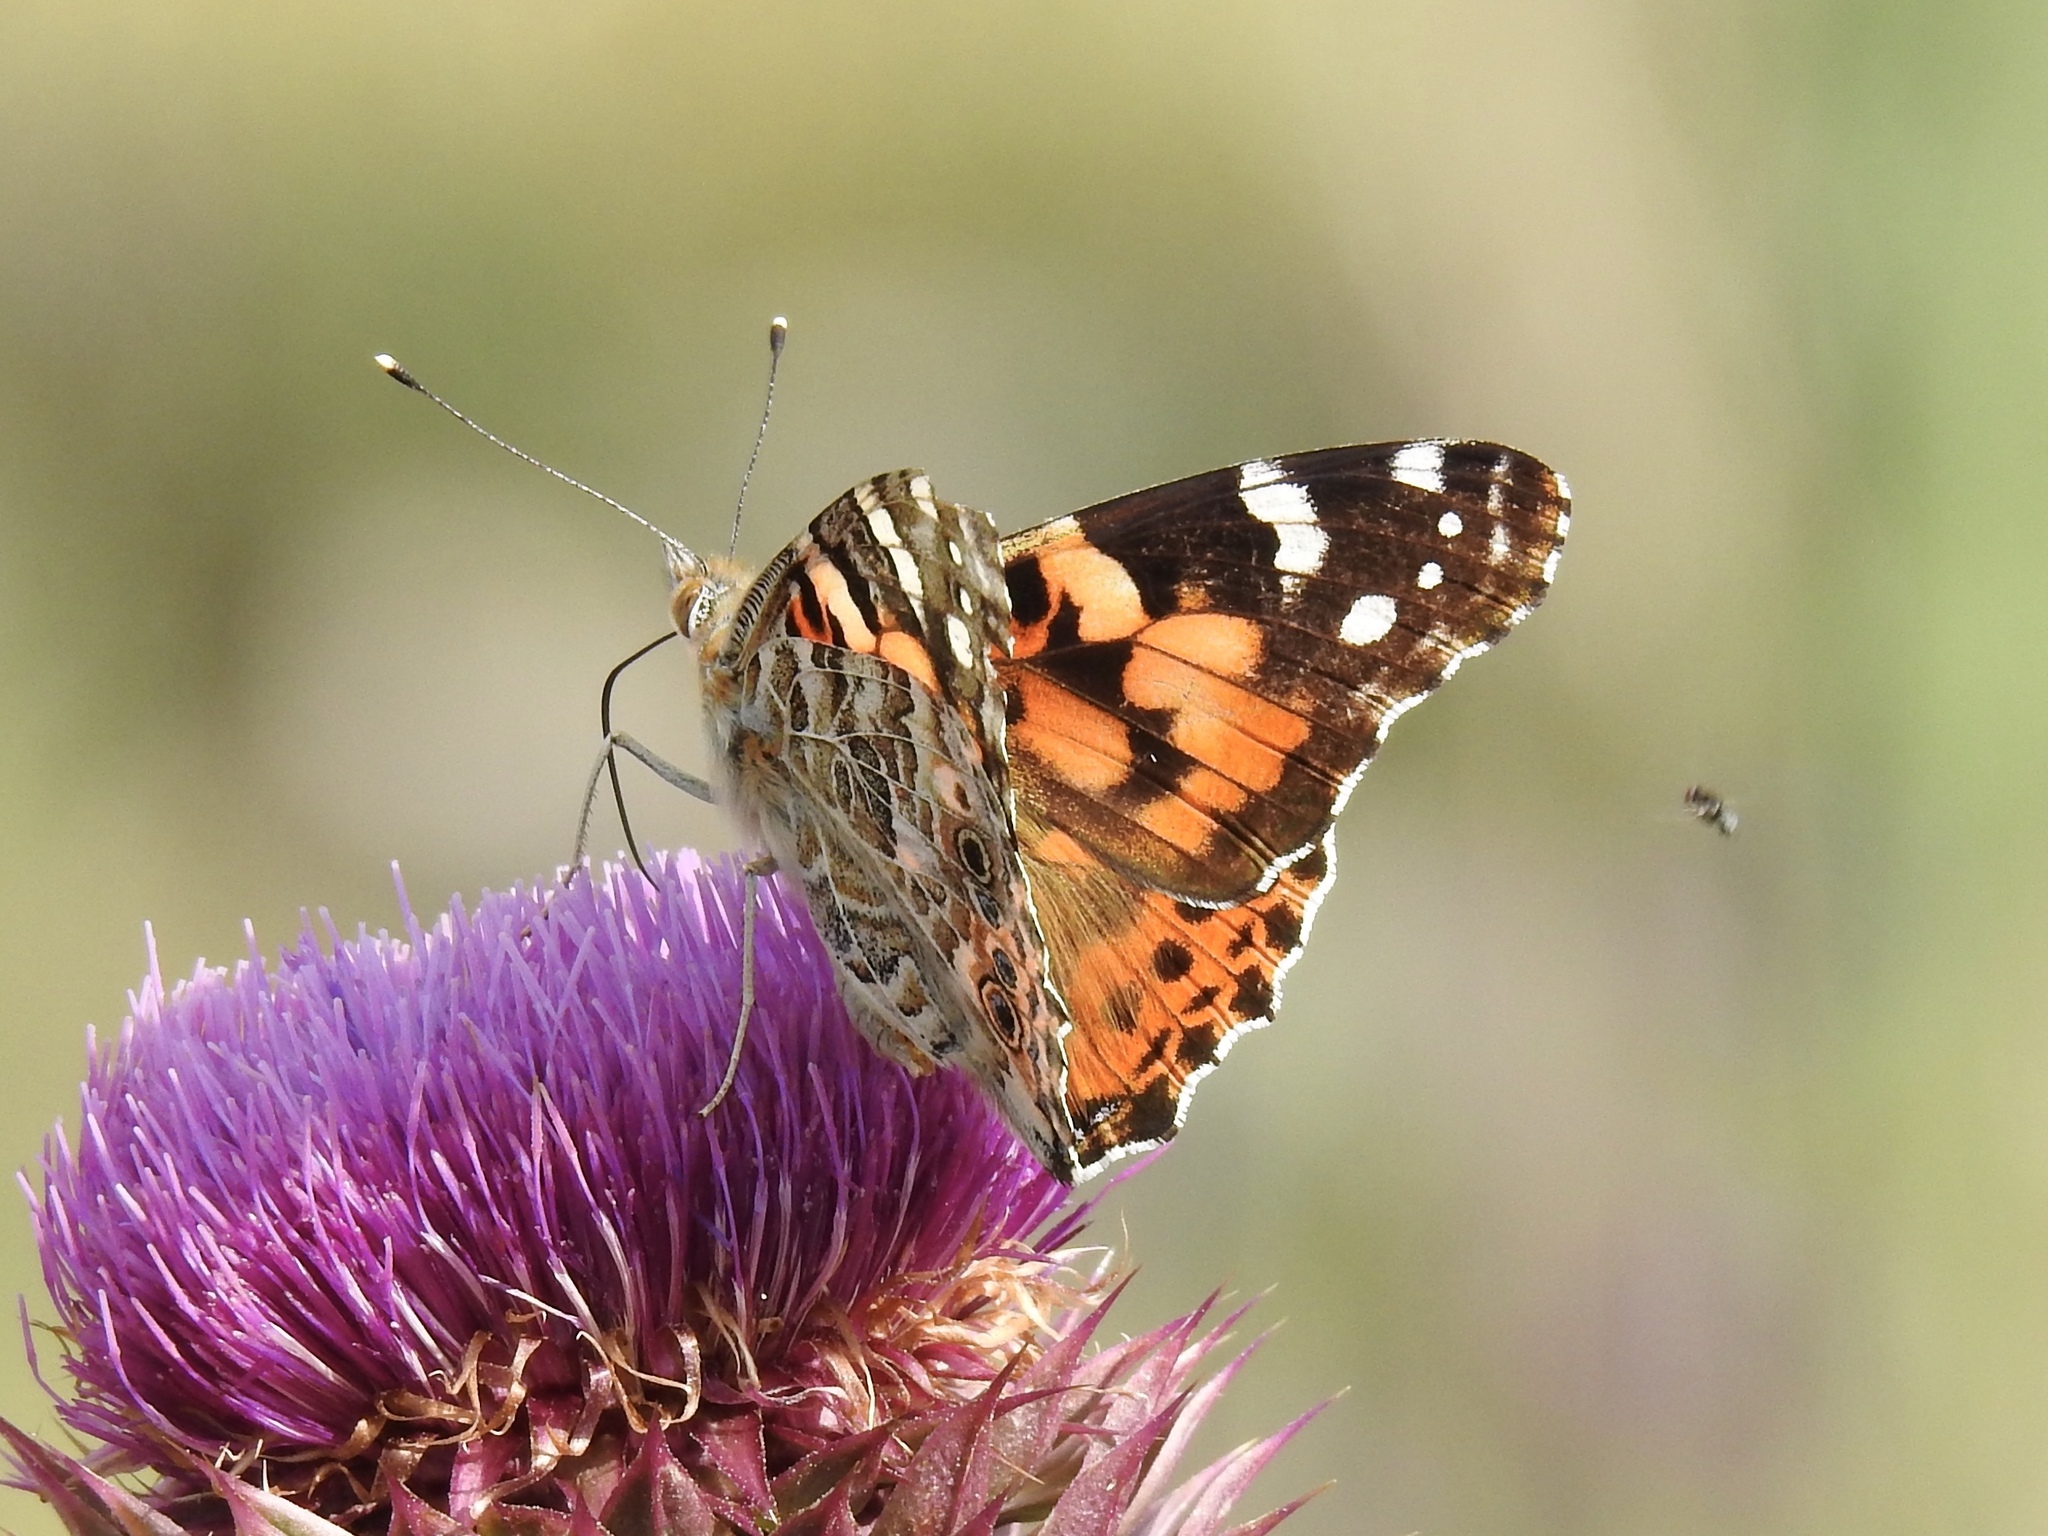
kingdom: Animalia
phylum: Arthropoda
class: Insecta
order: Lepidoptera
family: Nymphalidae
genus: Vanessa
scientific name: Vanessa cardui
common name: Painted lady
